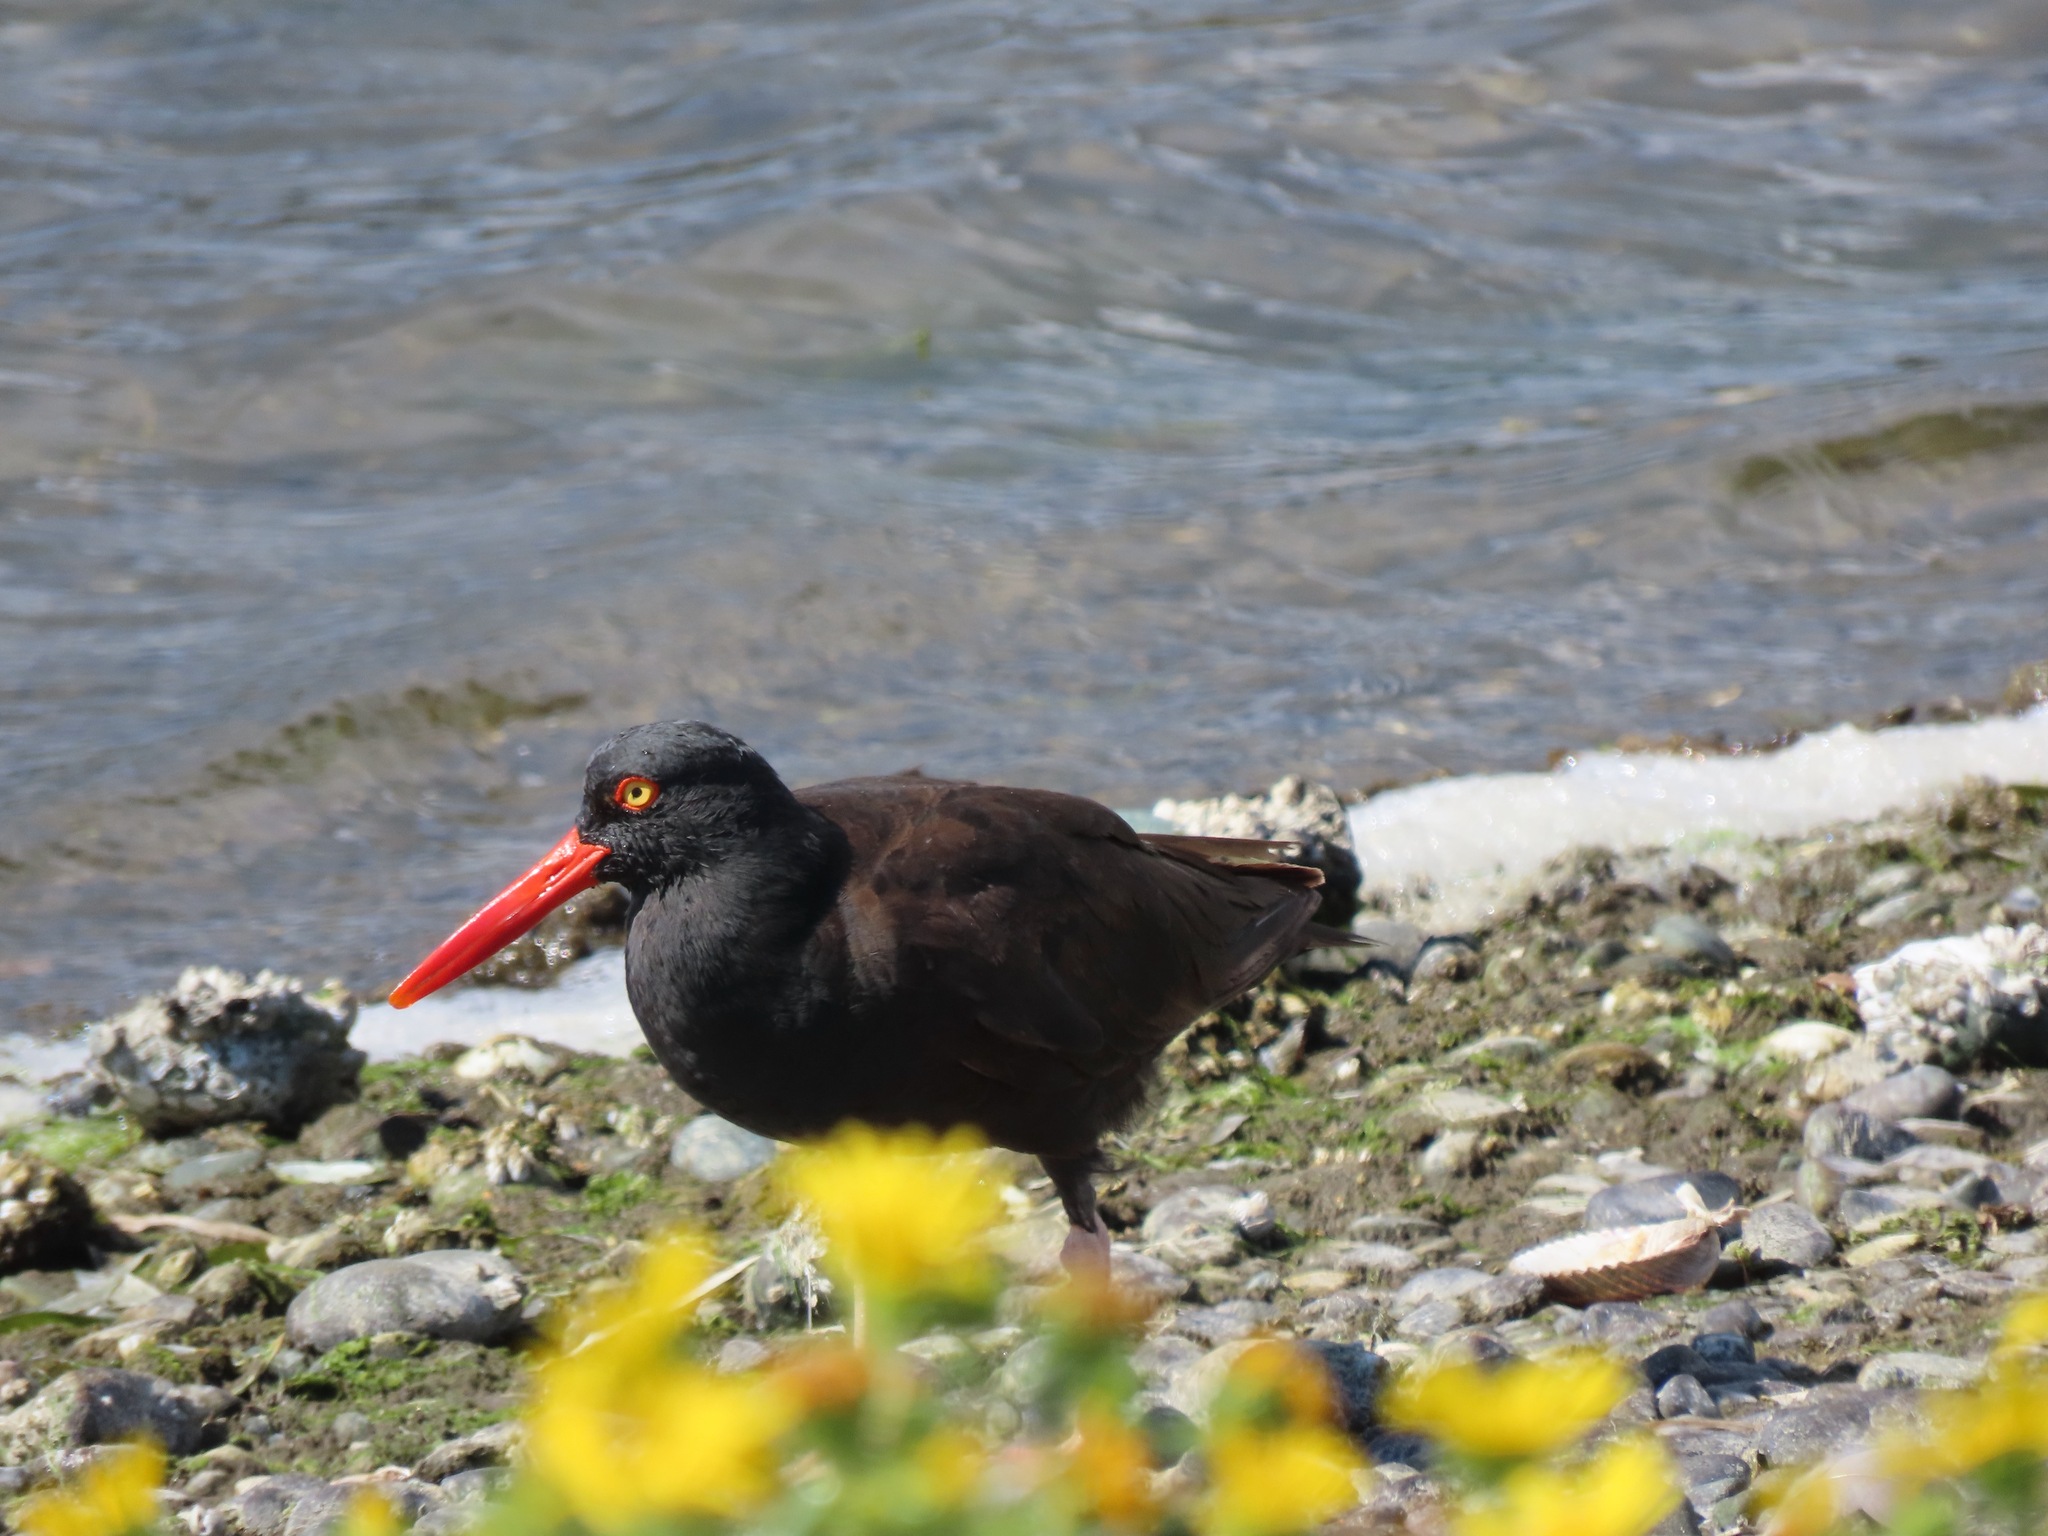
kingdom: Animalia
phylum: Chordata
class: Aves
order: Charadriiformes
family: Haematopodidae
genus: Haematopus
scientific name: Haematopus bachmani
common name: Black oystercatcher
